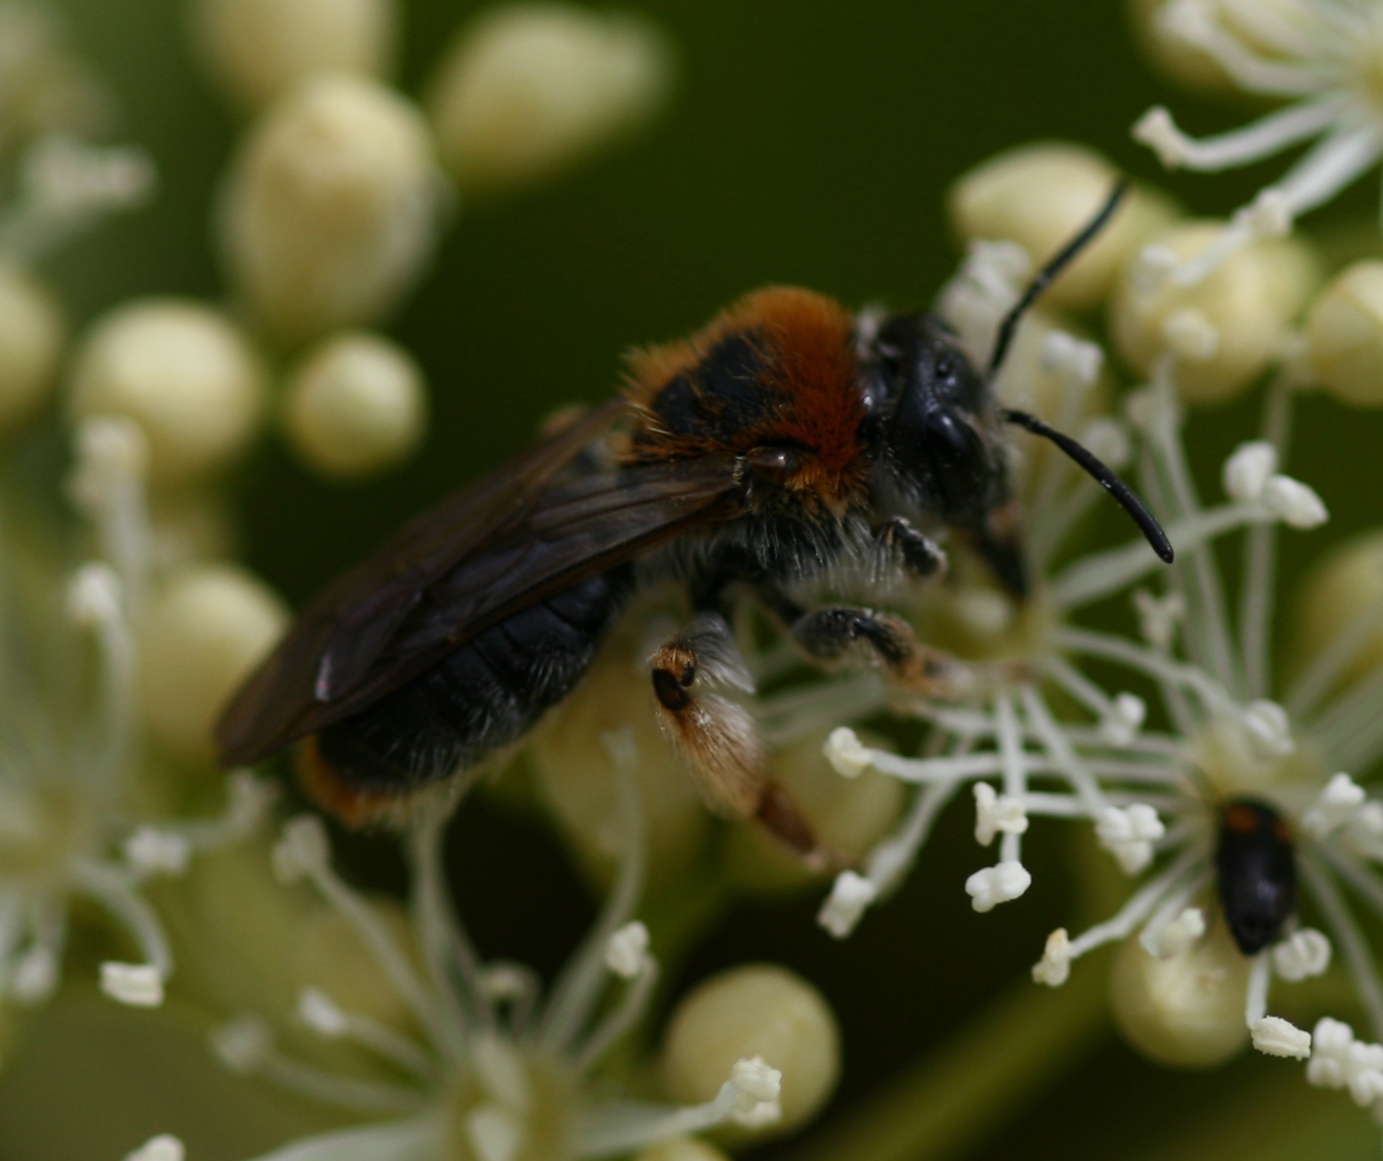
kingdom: Animalia
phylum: Arthropoda
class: Insecta
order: Hymenoptera
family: Andrenidae
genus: Andrena
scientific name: Andrena haemorrhoa
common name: Early mining bee
